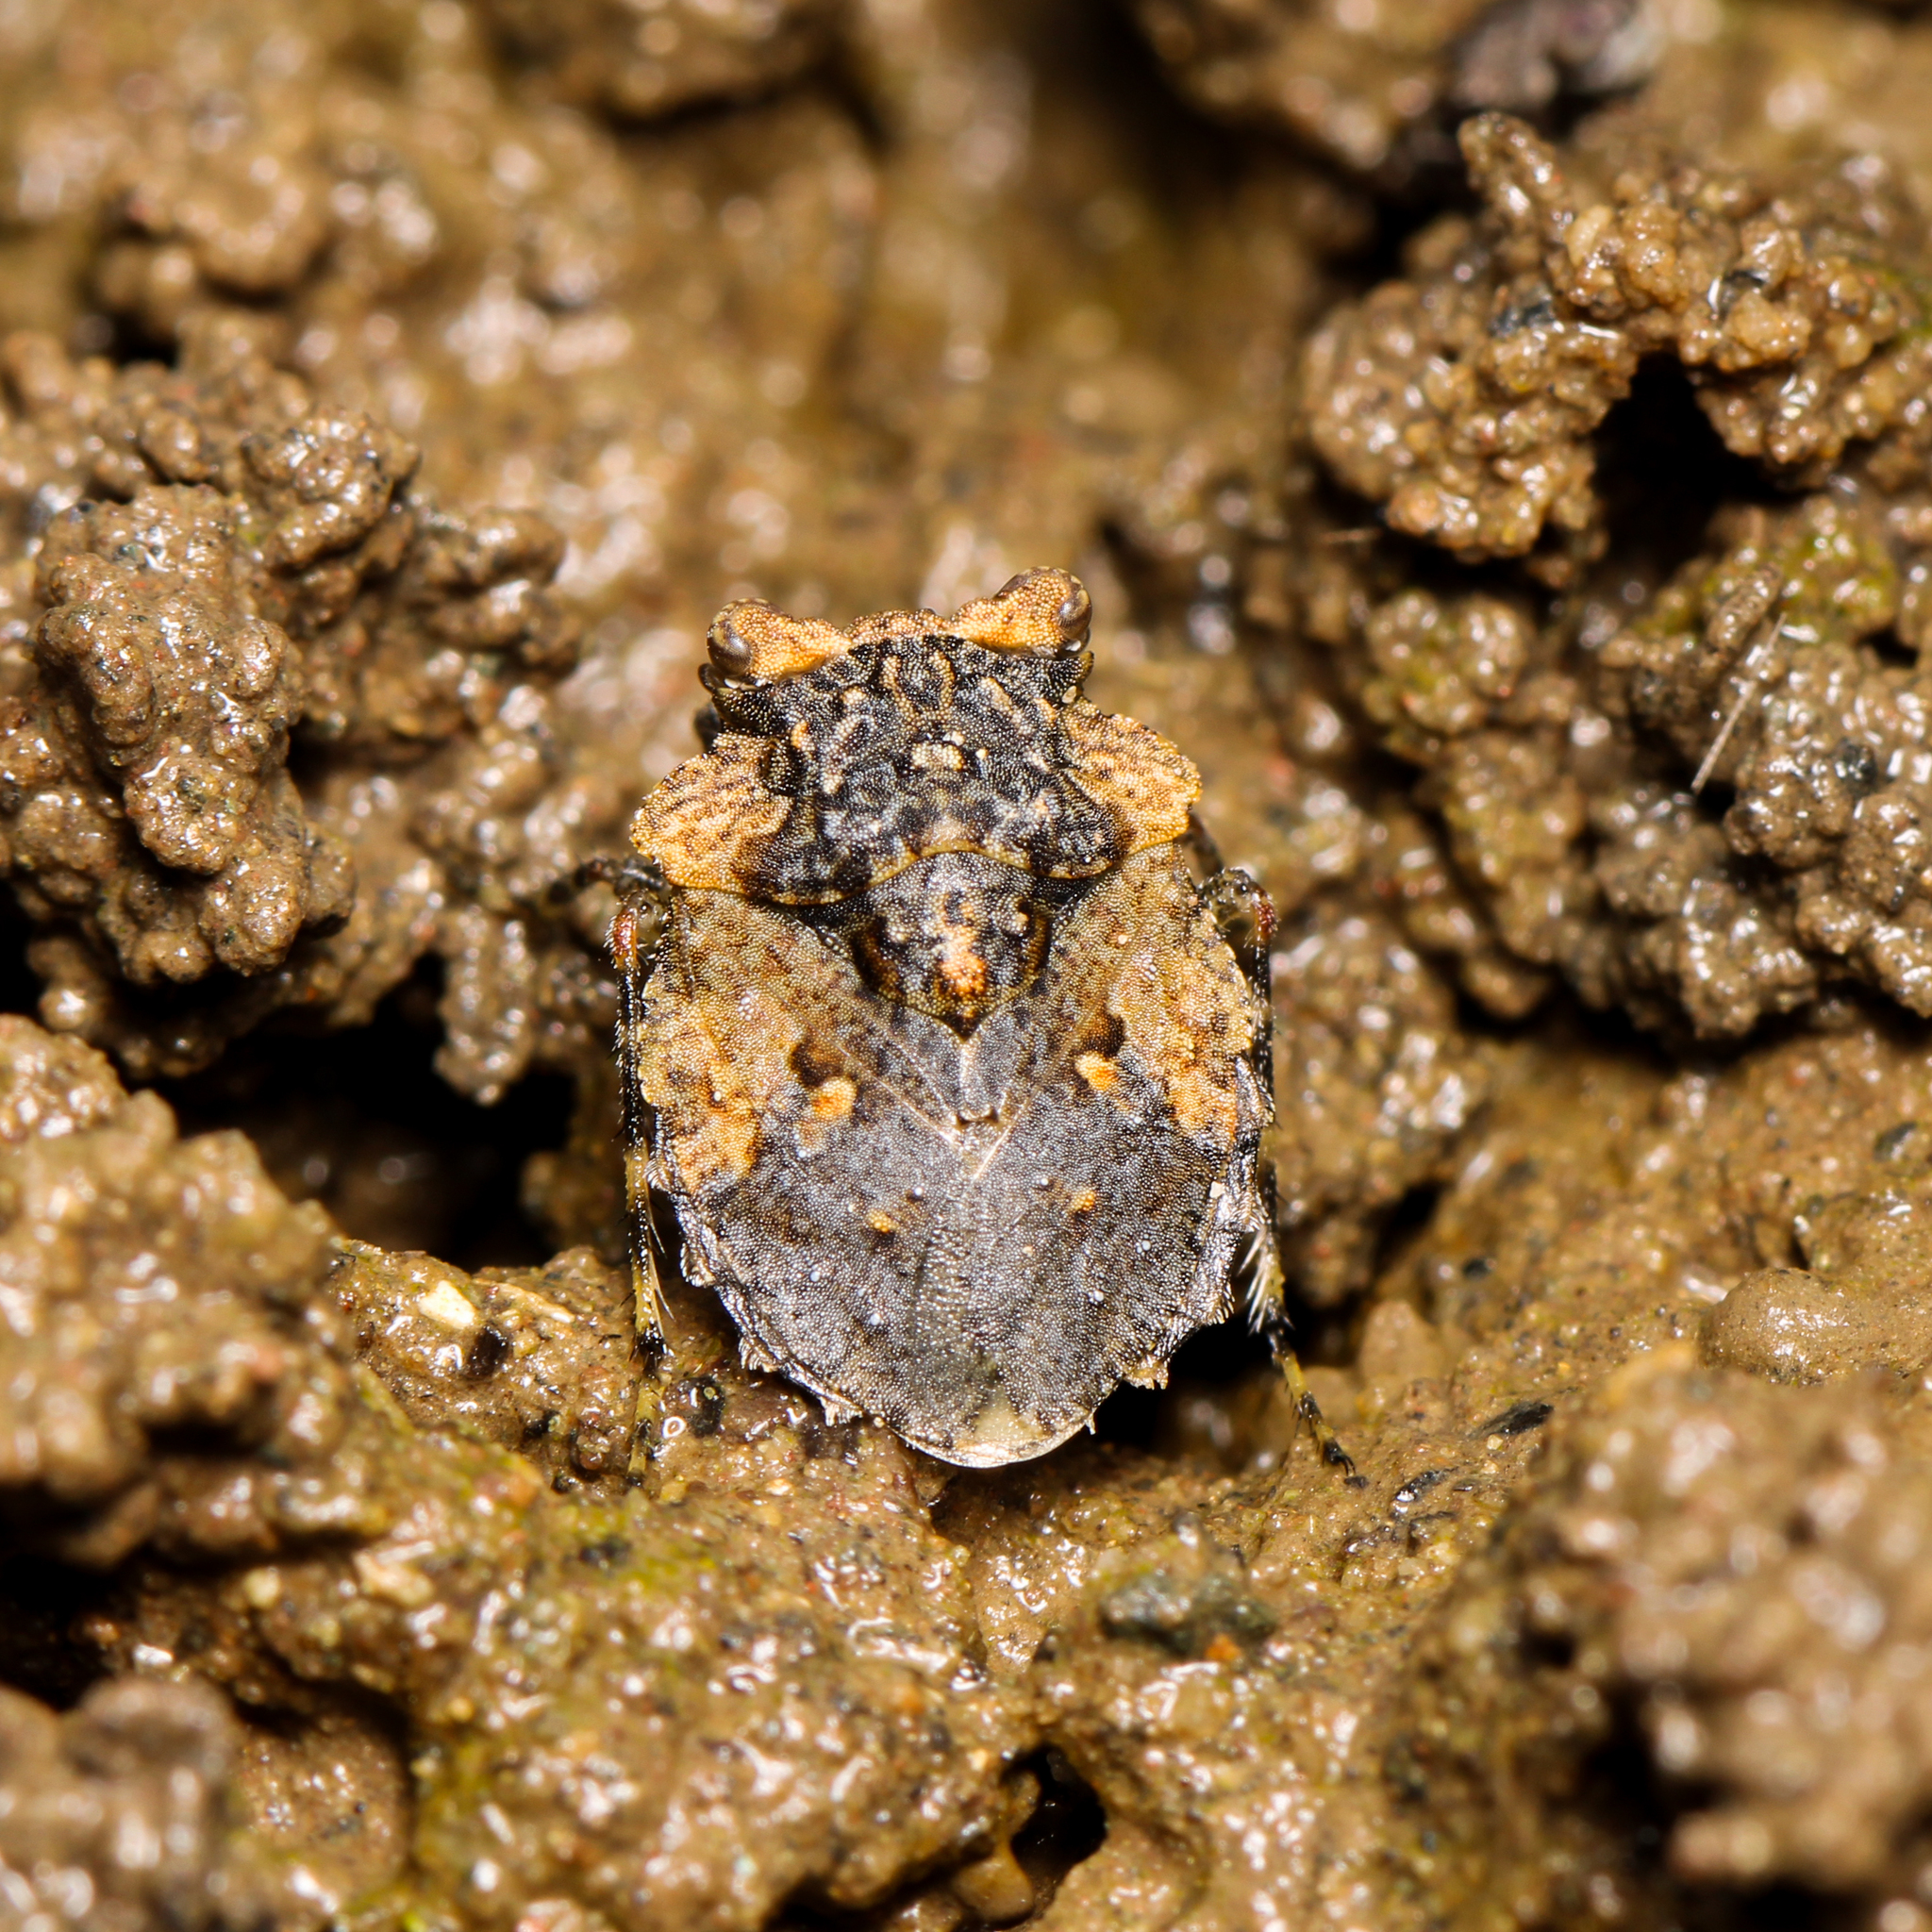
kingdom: Animalia
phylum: Arthropoda
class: Insecta
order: Hemiptera
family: Gelastocoridae
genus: Gelastocoris
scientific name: Gelastocoris oculatus
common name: Toad bug
